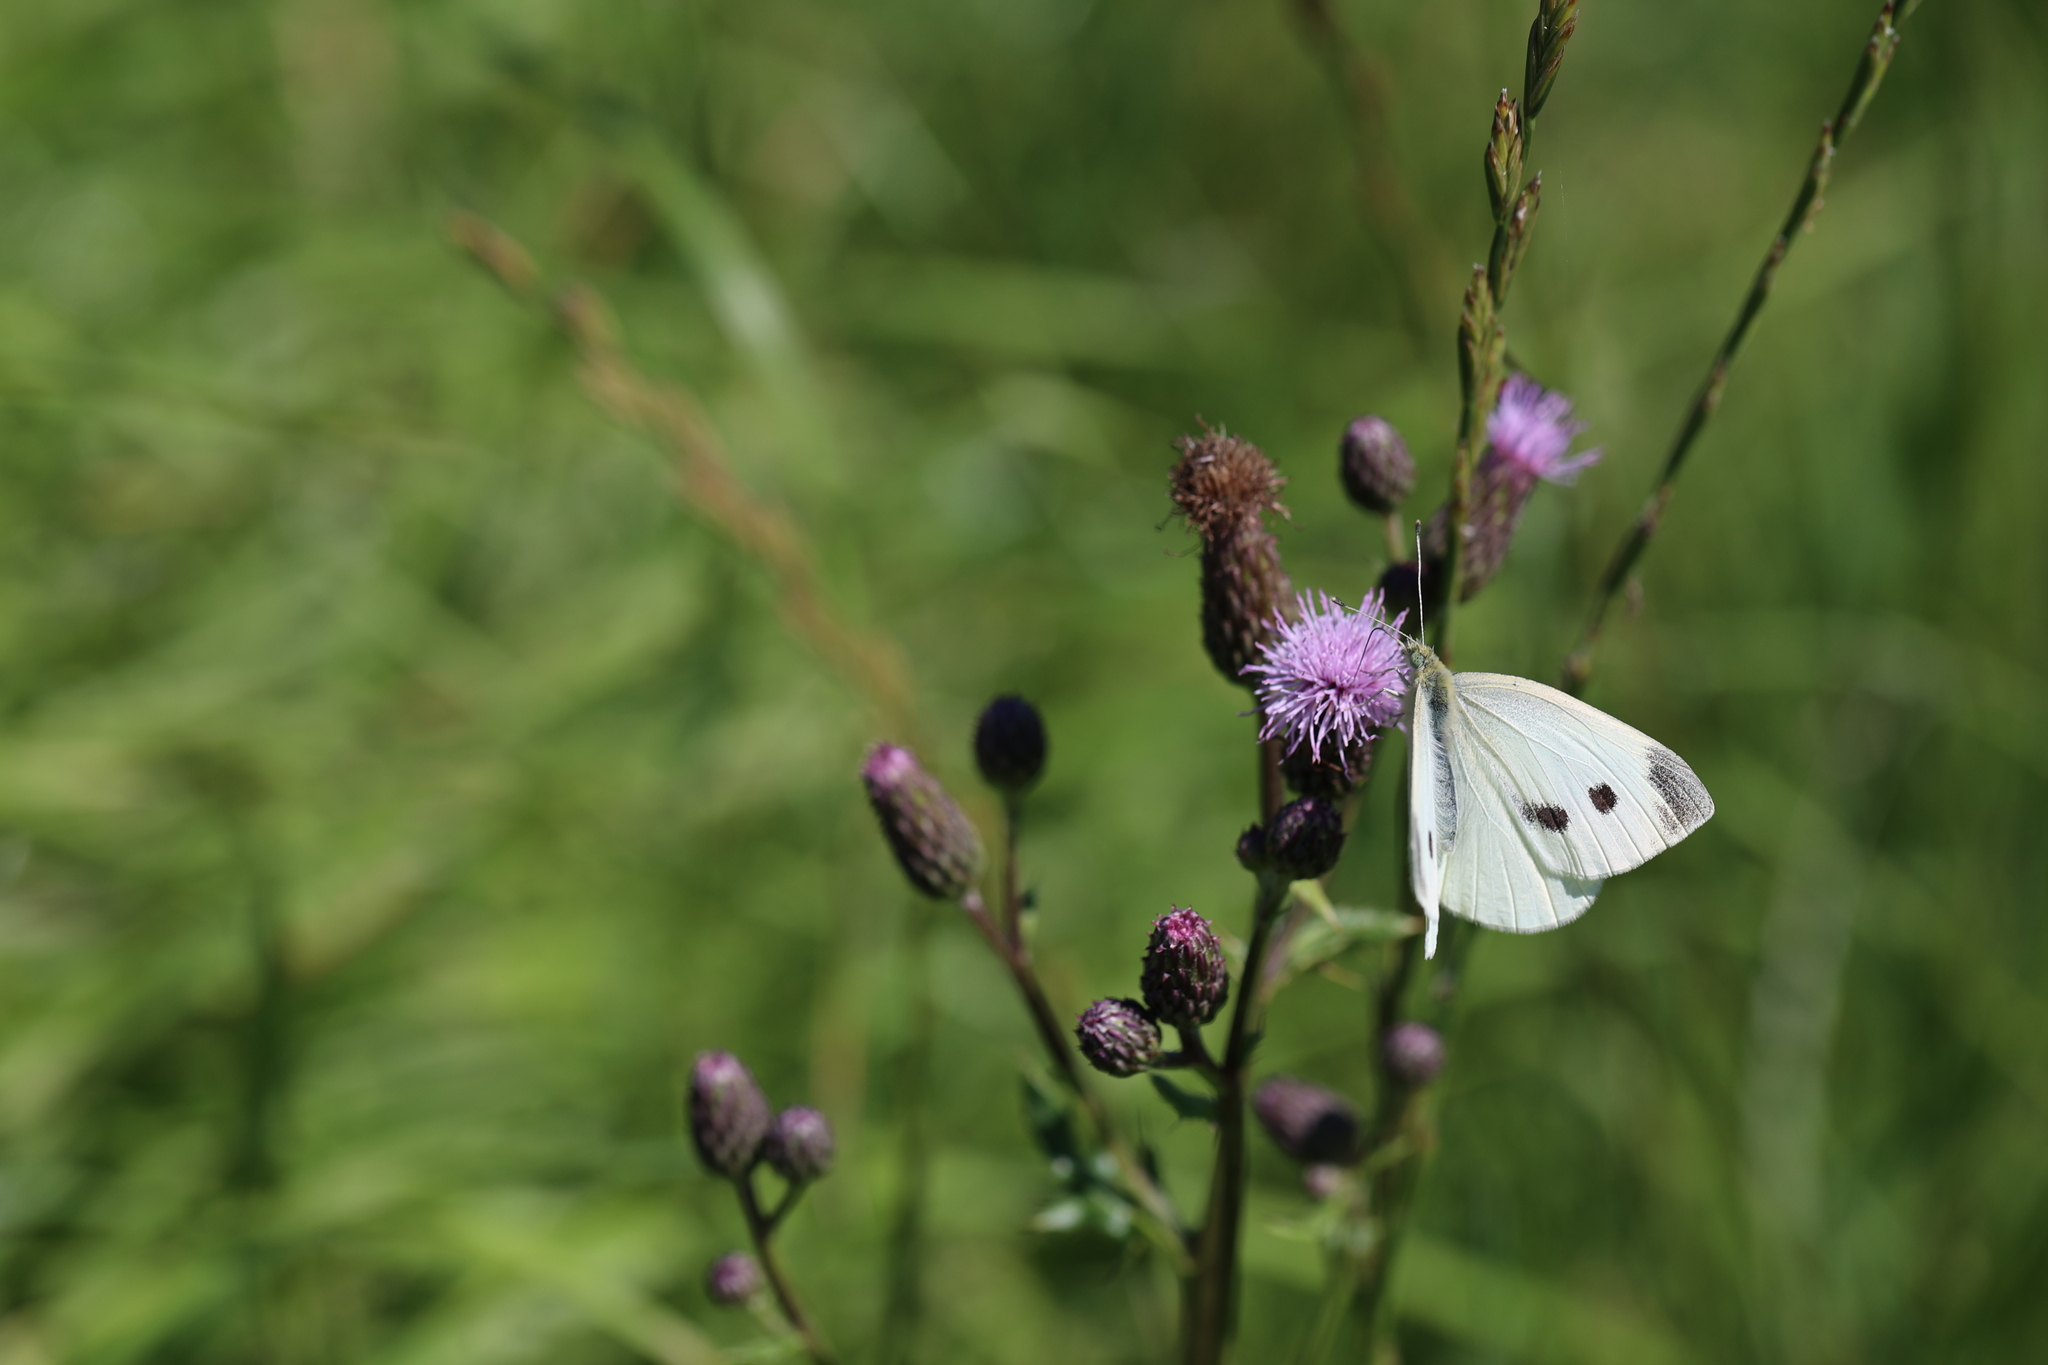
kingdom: Animalia
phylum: Arthropoda
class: Insecta
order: Lepidoptera
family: Pieridae
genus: Pieris
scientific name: Pieris rapae
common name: Small white
